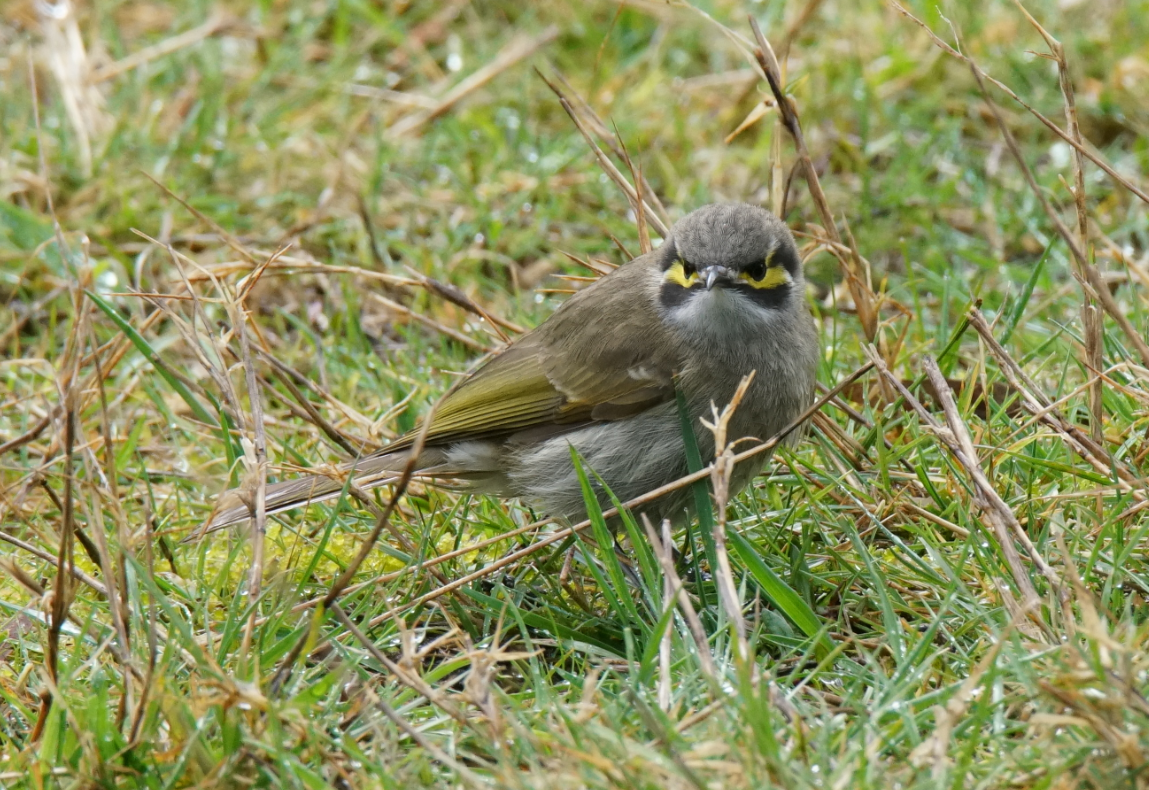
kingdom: Animalia
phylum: Chordata
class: Aves
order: Passeriformes
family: Meliphagidae
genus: Caligavis
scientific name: Caligavis chrysops
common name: Yellow-faced honeyeater
